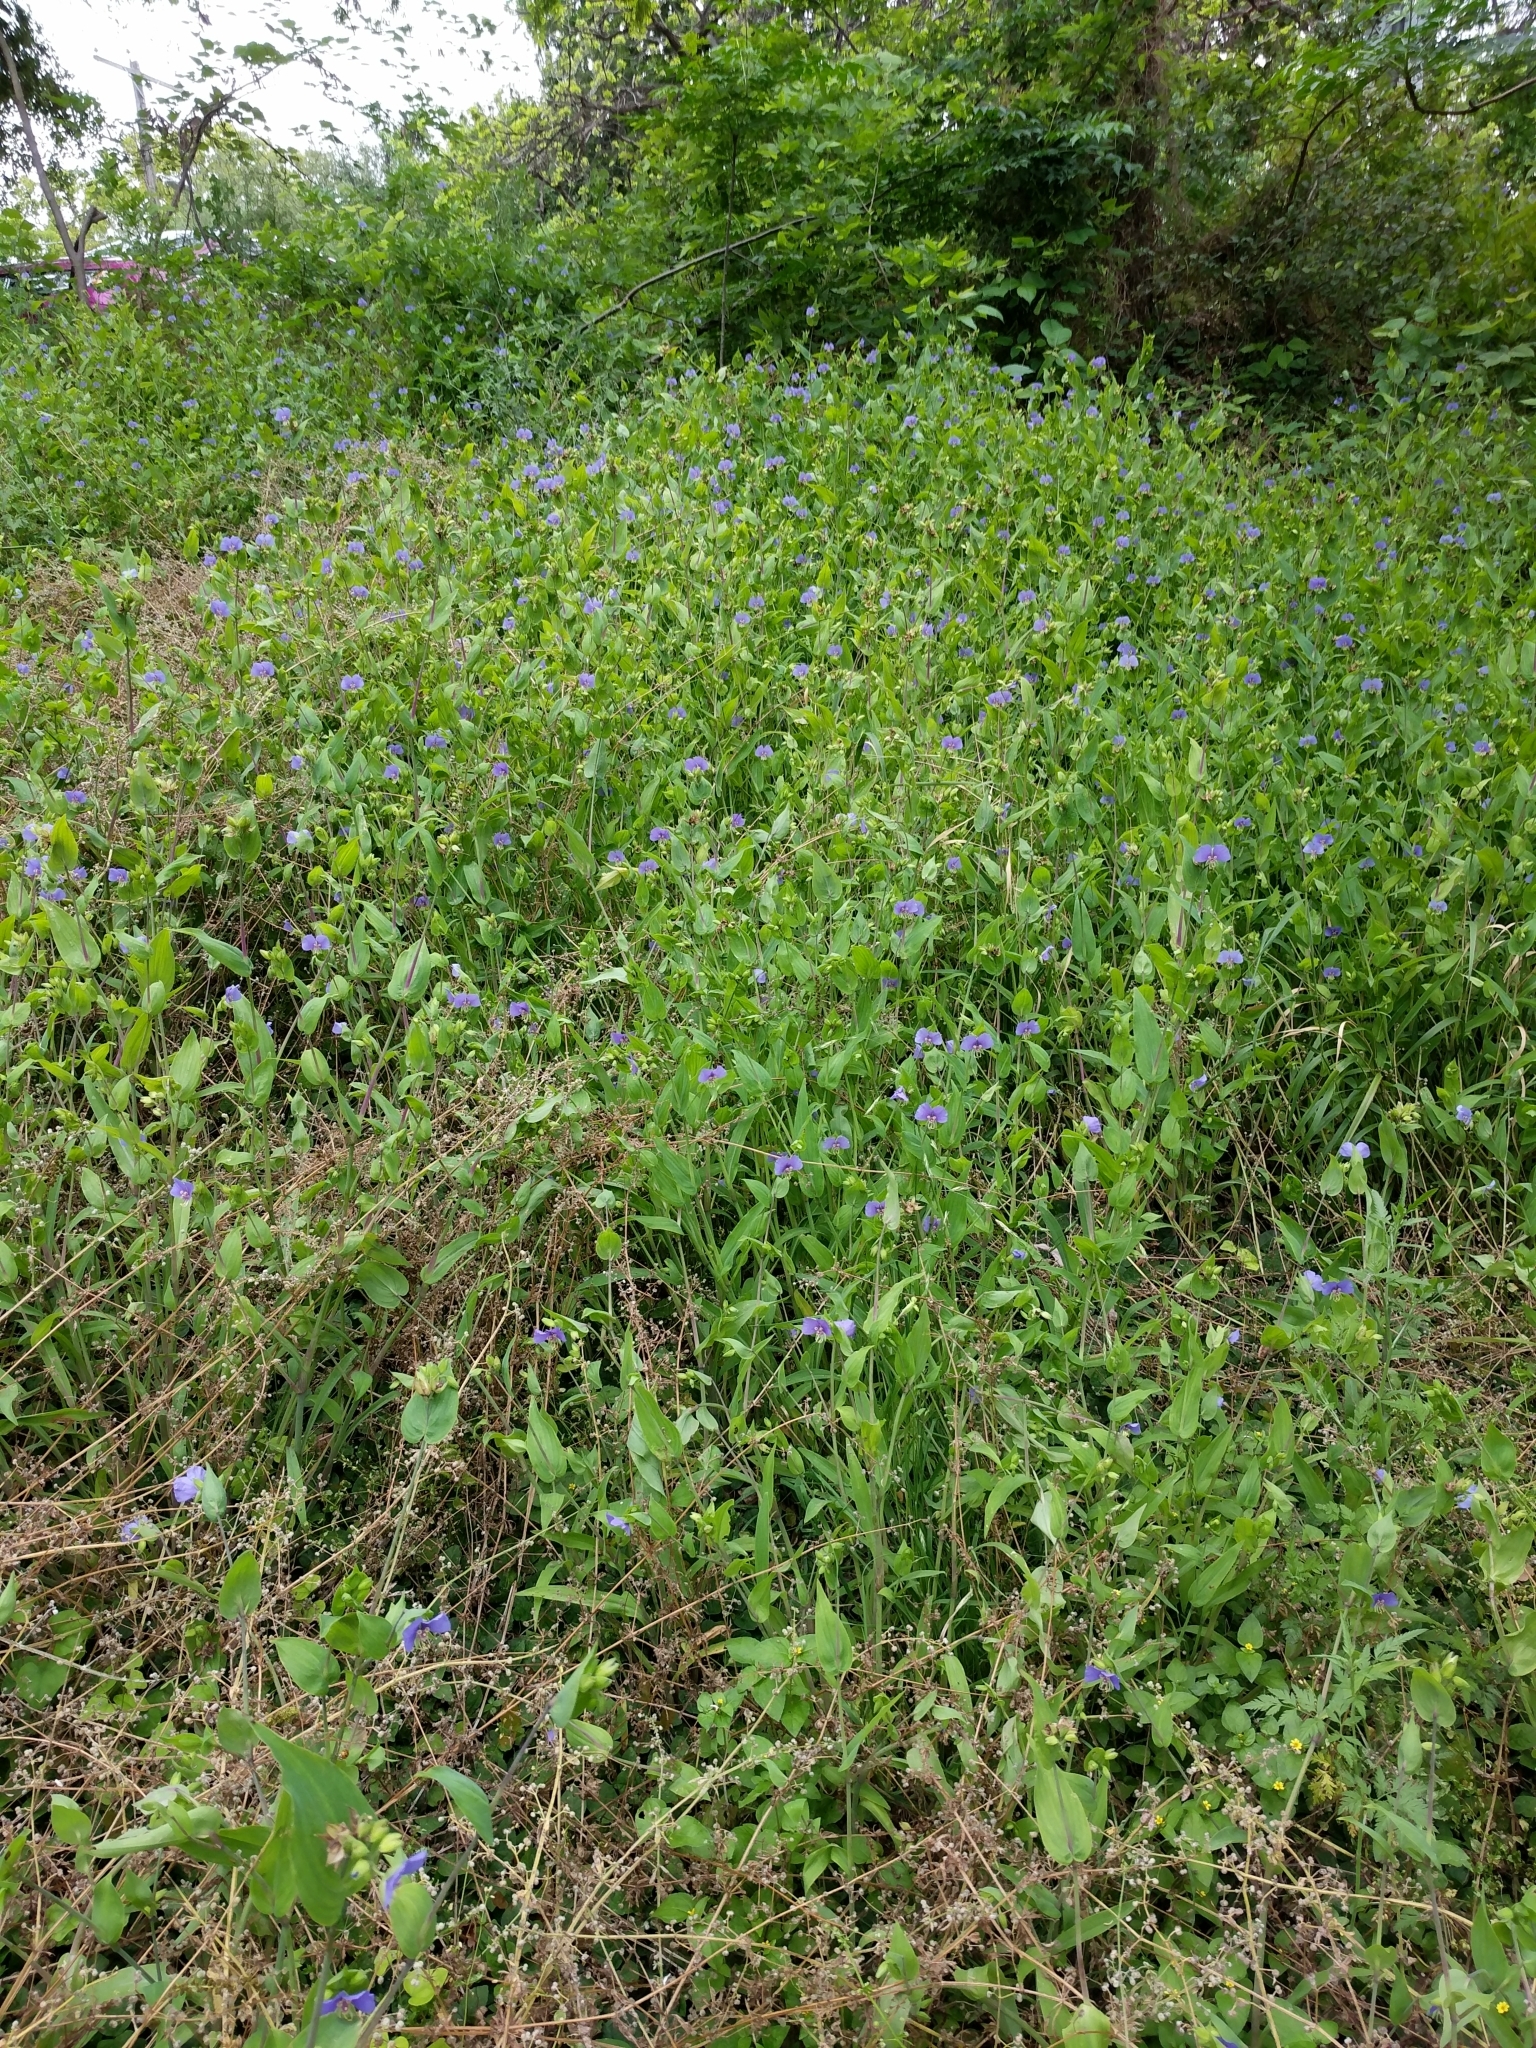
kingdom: Plantae
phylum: Tracheophyta
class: Liliopsida
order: Commelinales
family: Commelinaceae
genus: Tinantia
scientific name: Tinantia anomala
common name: False dayflower
